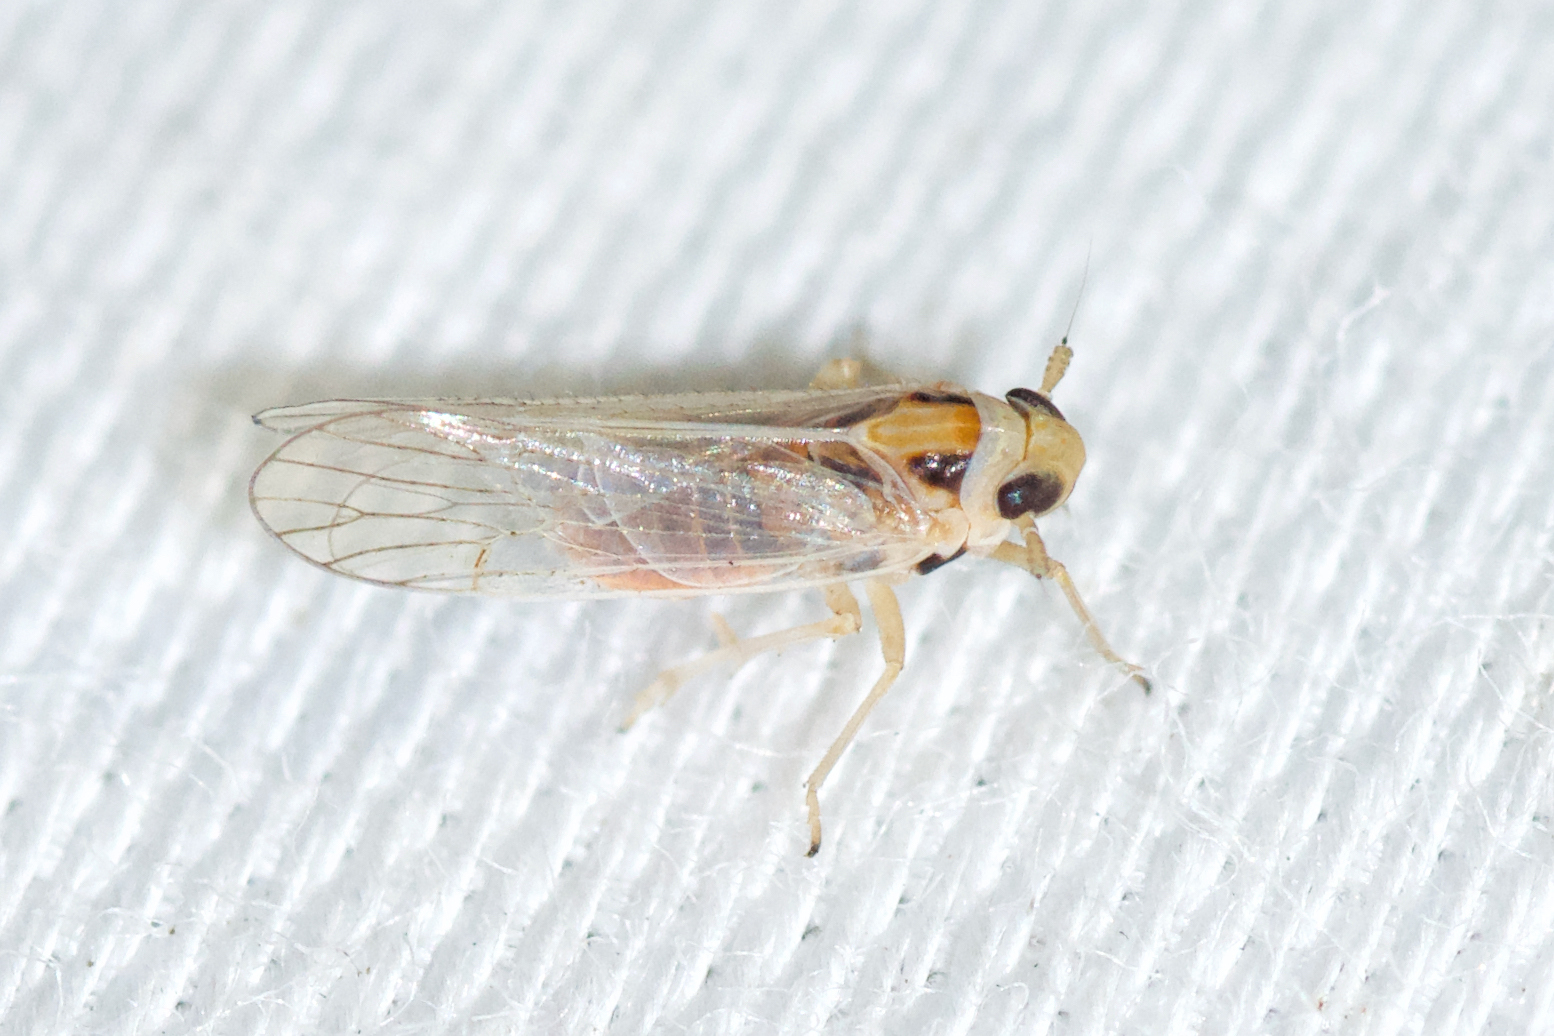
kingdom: Animalia
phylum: Arthropoda
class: Insecta
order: Hemiptera
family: Delphacidae
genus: Muirodelphax
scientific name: Muirodelphax arvensis
